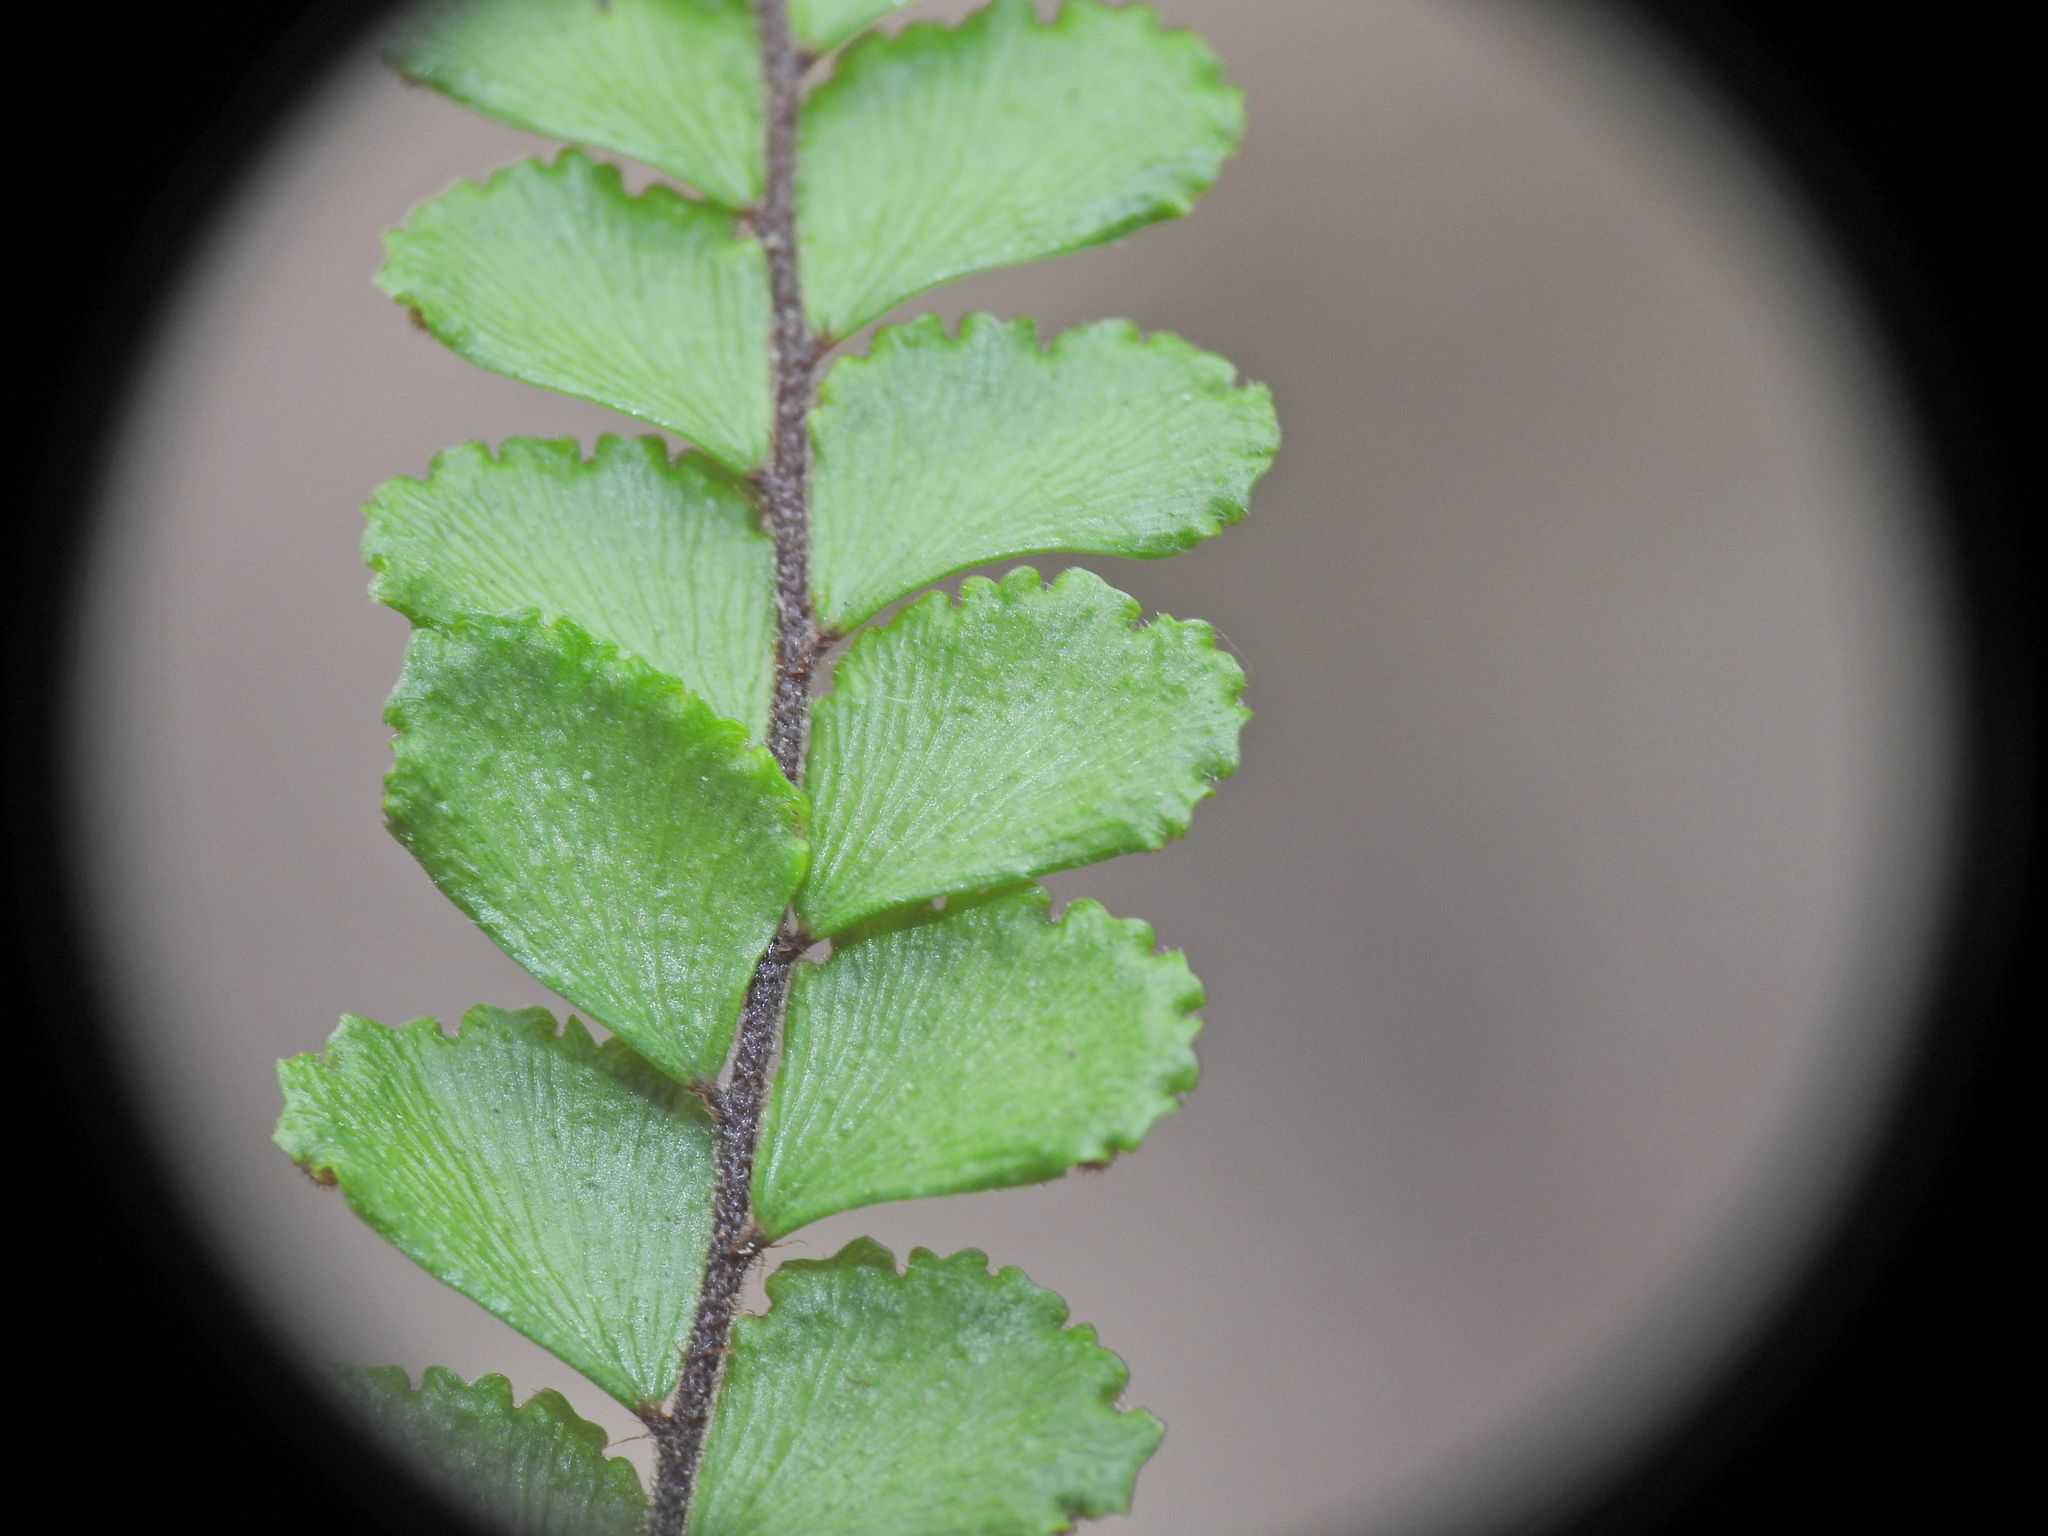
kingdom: Plantae
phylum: Tracheophyta
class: Polypodiopsida
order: Polypodiales
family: Pteridaceae
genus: Adiantum
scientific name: Adiantum hispidulum
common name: Rough maidenhair
